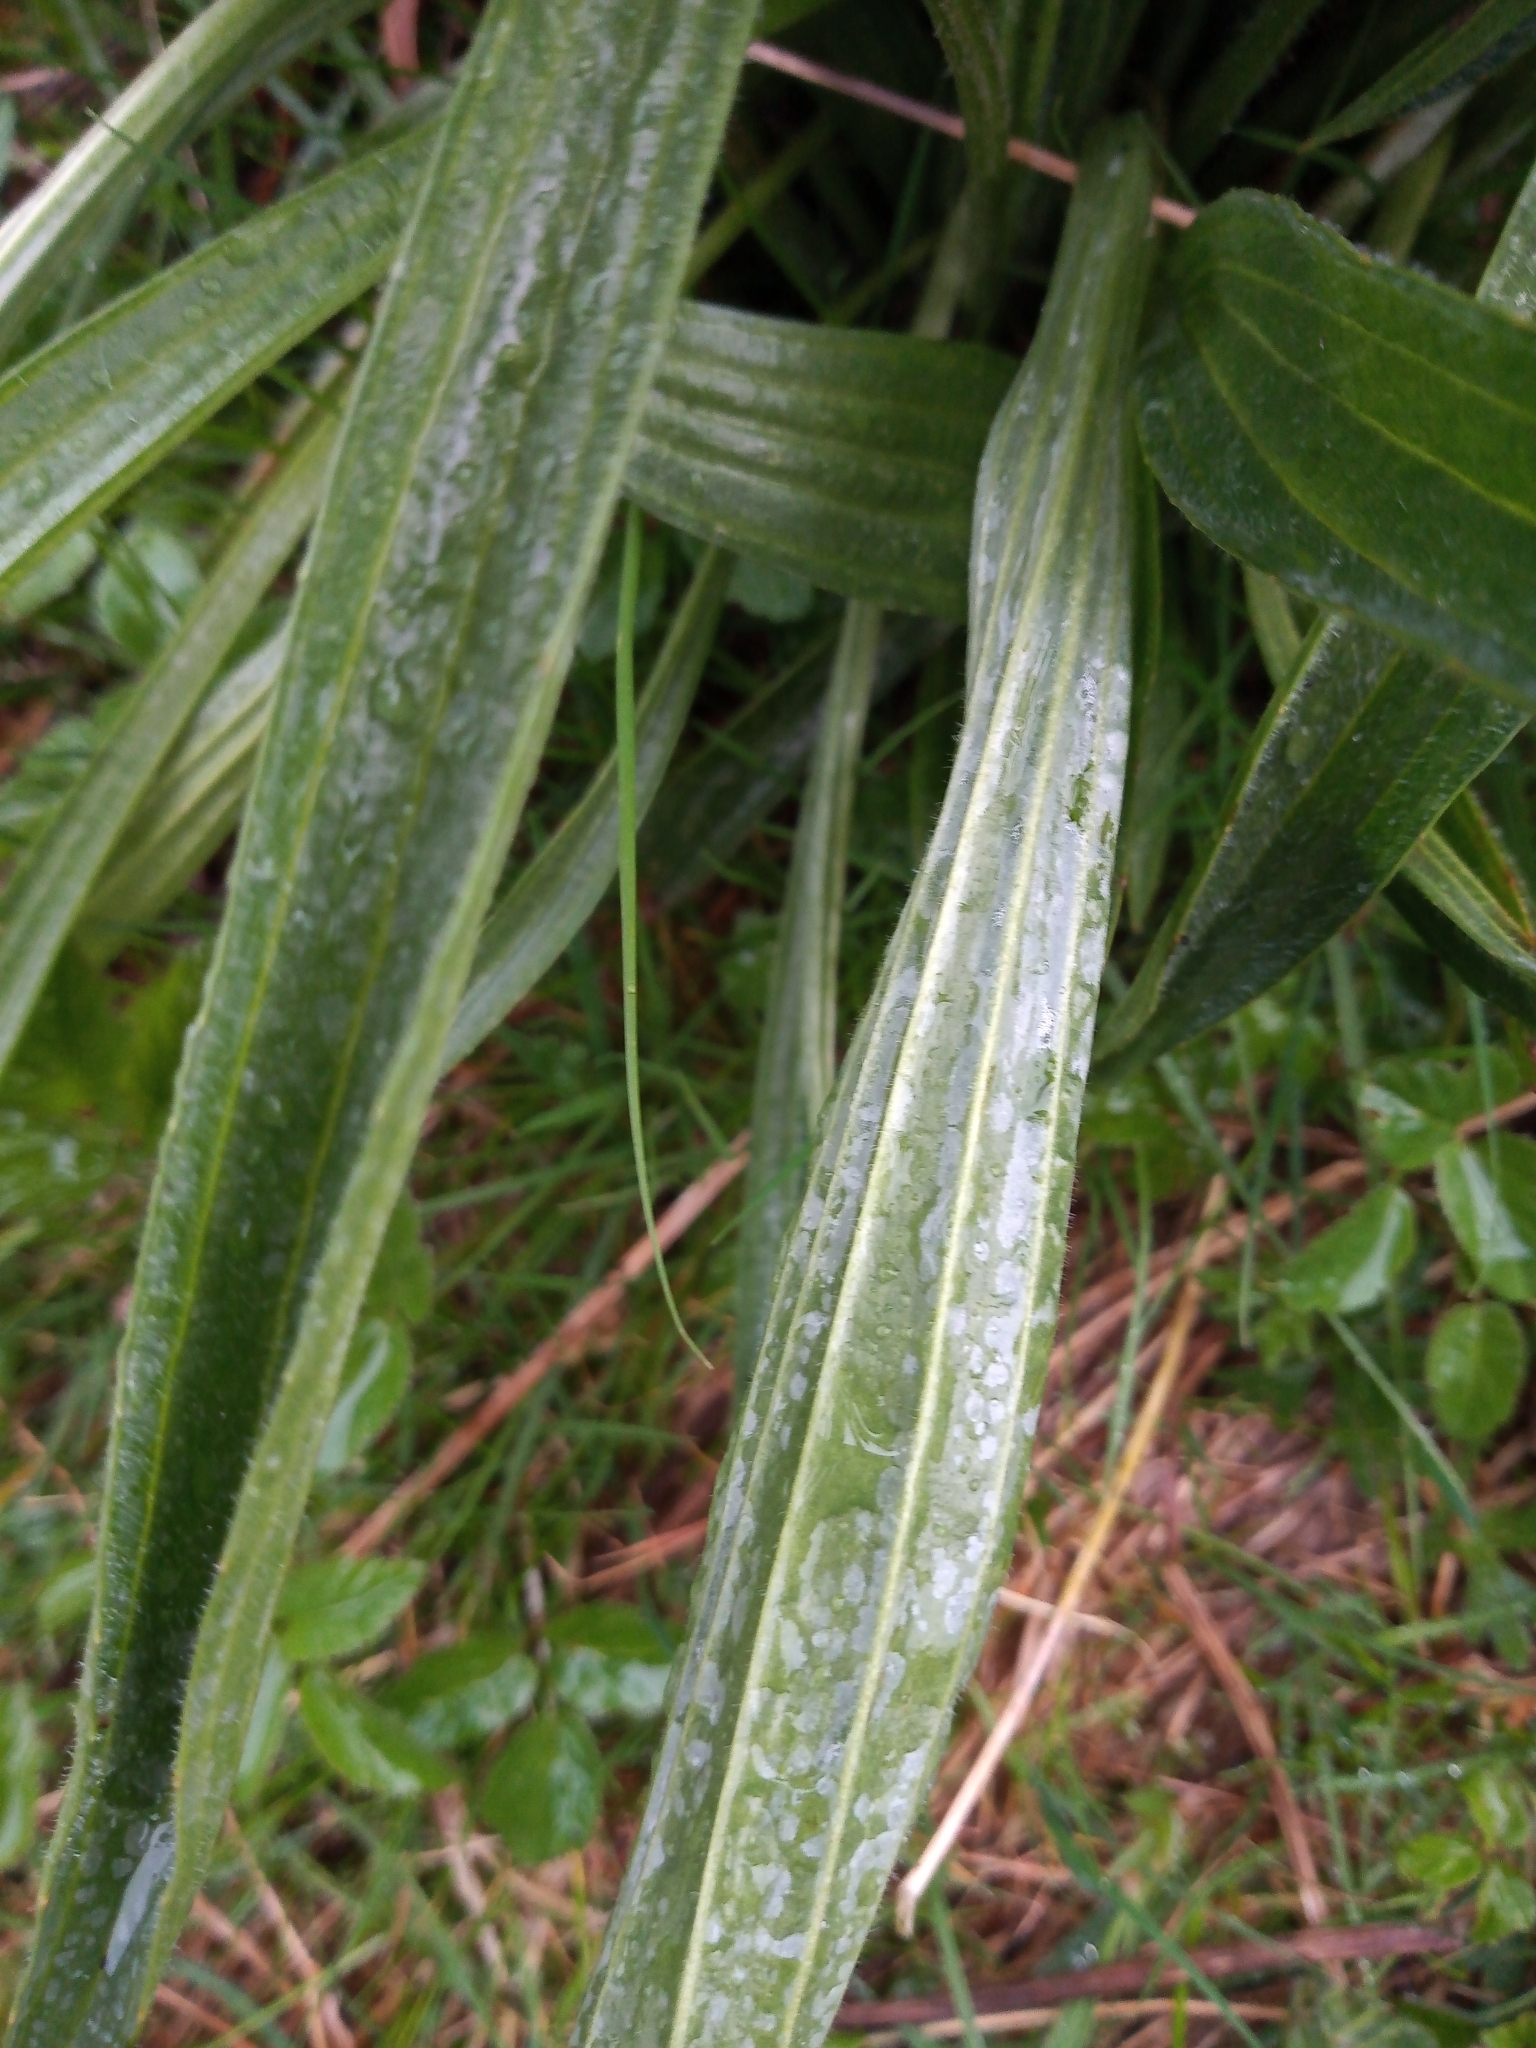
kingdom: Plantae
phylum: Tracheophyta
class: Magnoliopsida
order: Lamiales
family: Plantaginaceae
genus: Plantago
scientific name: Plantago lanceolata
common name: Ribwort plantain
